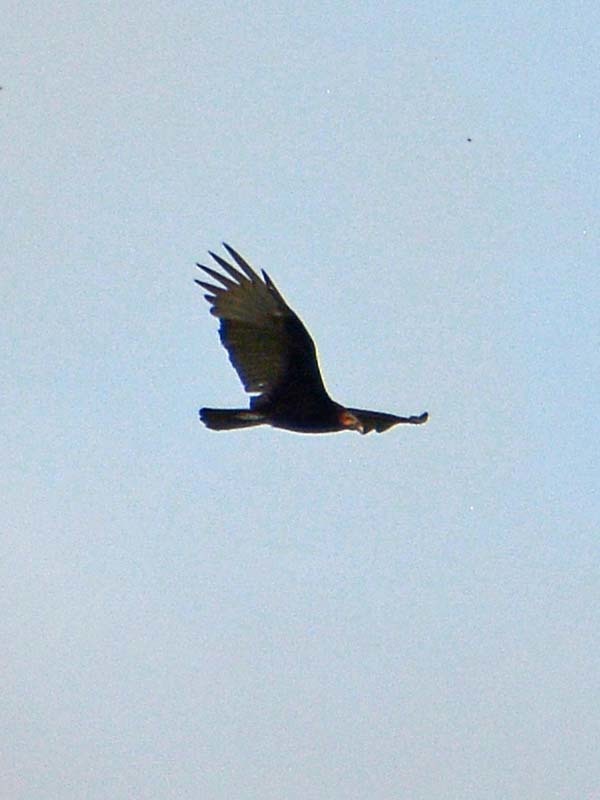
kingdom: Animalia
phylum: Chordata
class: Aves
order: Accipitriformes
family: Cathartidae
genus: Cathartes
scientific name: Cathartes burrovianus
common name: Lesser yellow-headed vulture
